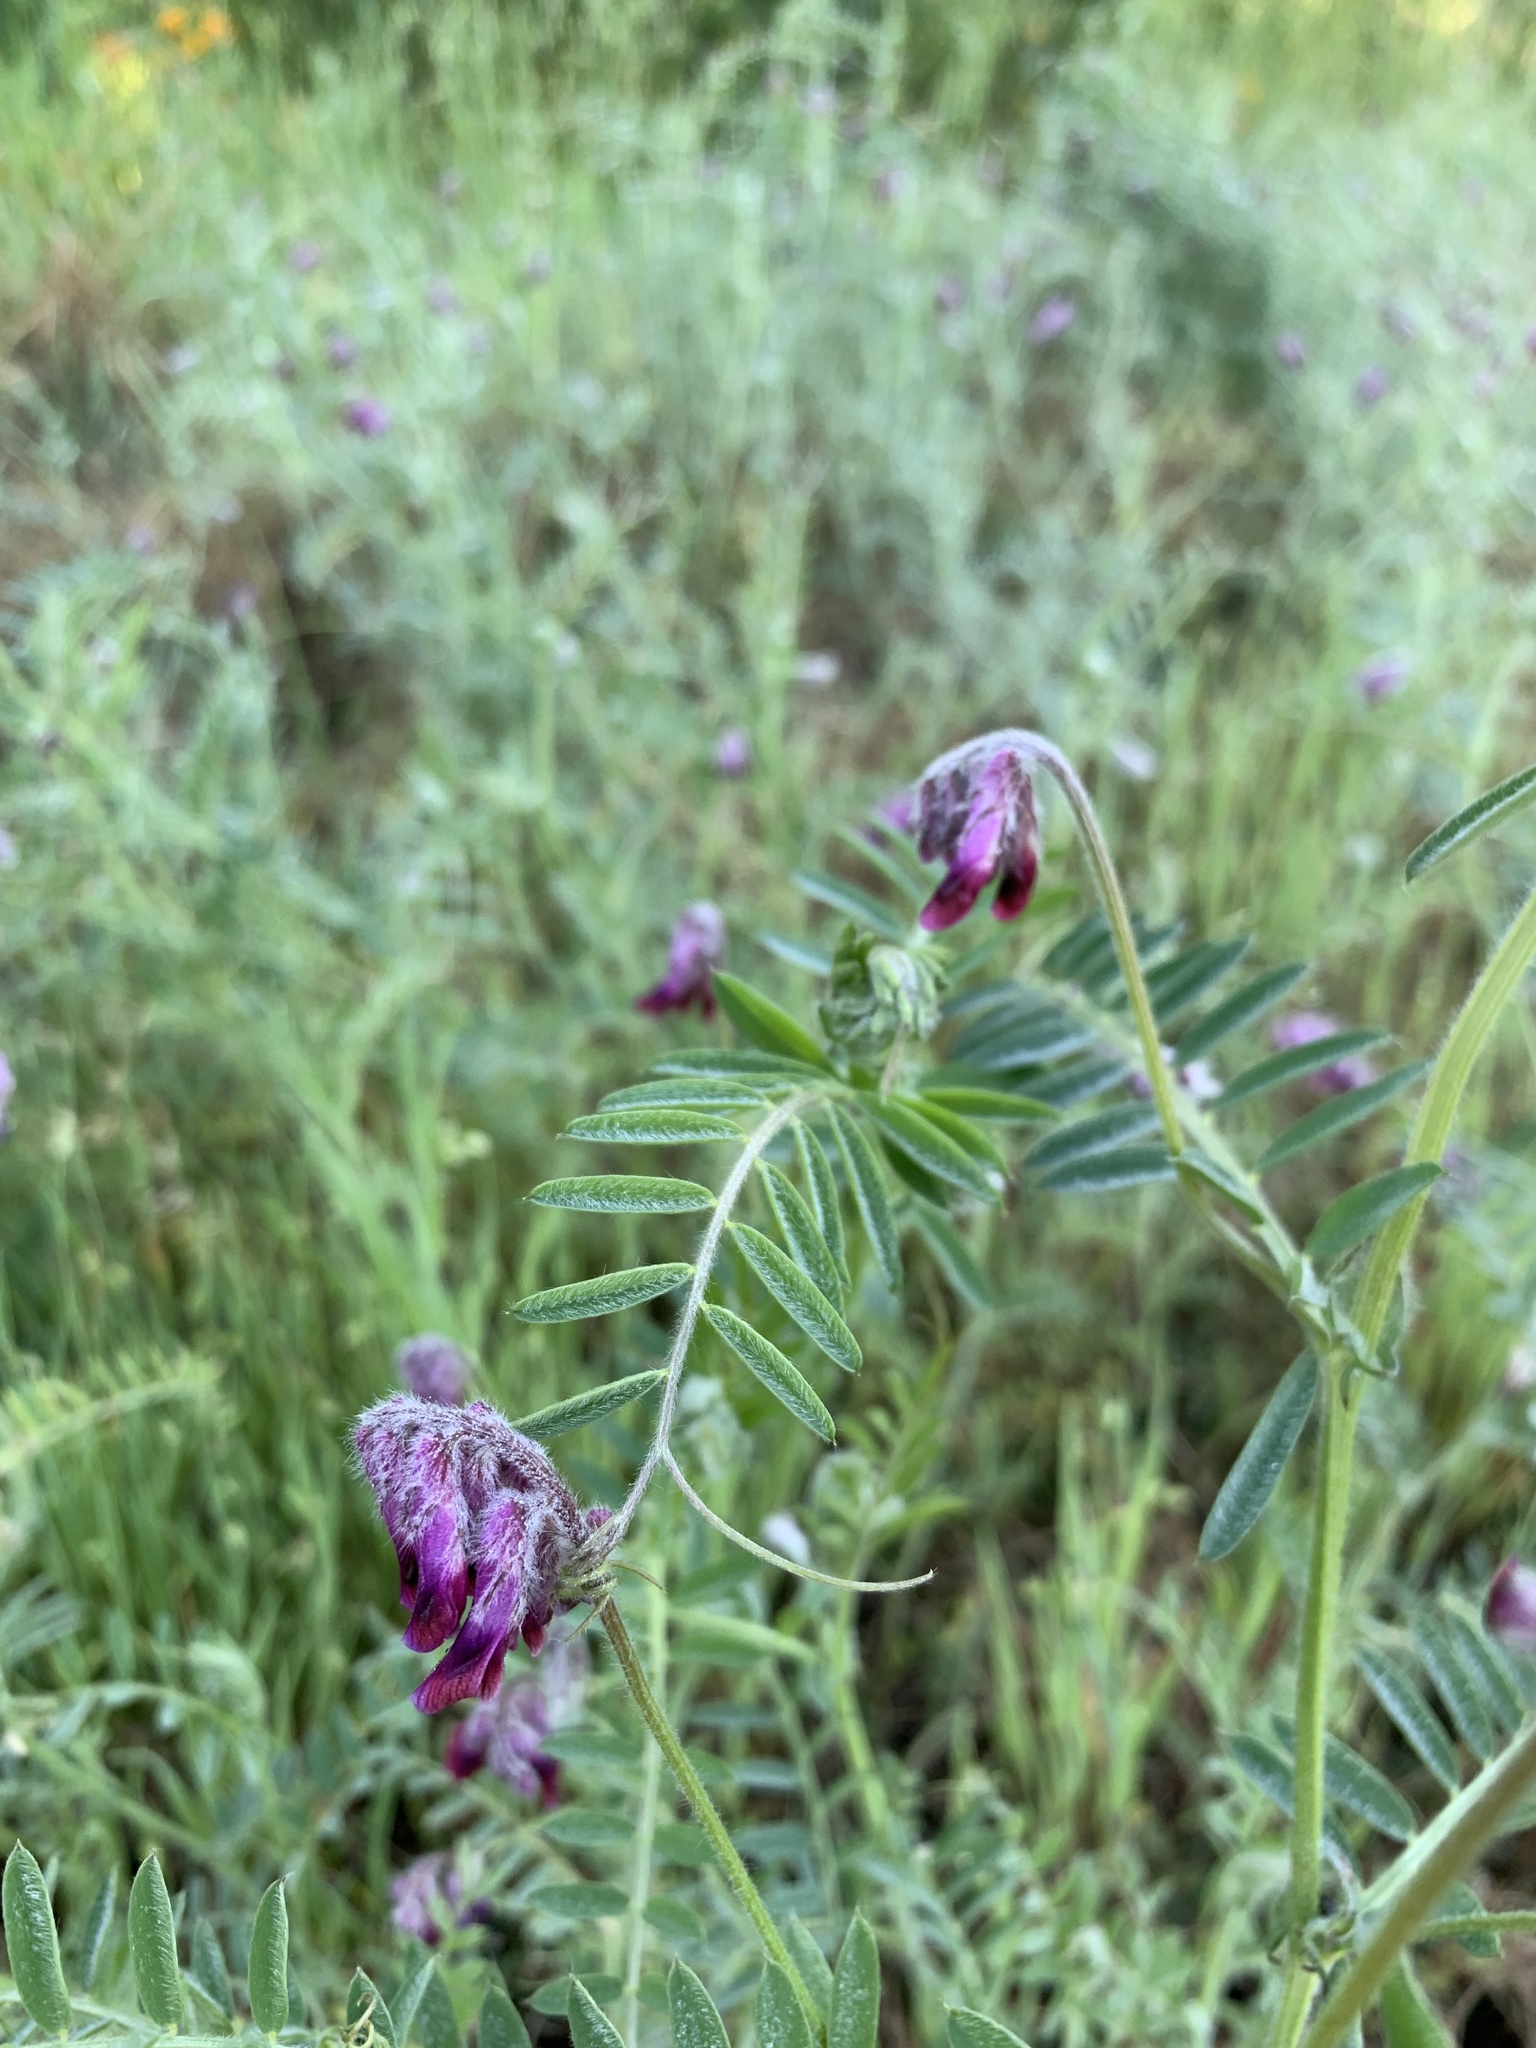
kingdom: Plantae
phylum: Tracheophyta
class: Magnoliopsida
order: Fabales
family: Fabaceae
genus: Vicia
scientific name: Vicia benghalensis
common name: Purple vetch
